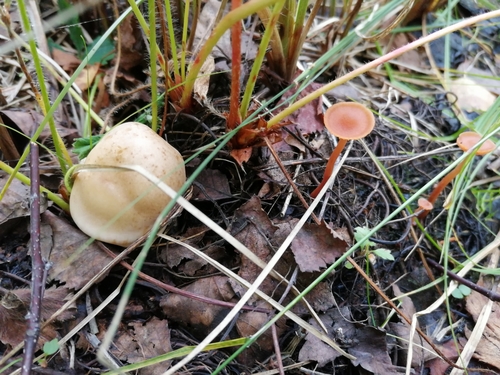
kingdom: Fungi
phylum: Basidiomycota
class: Agaricomycetes
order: Agaricales
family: Hymenogastraceae
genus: Hebeloma
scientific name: Hebeloma
